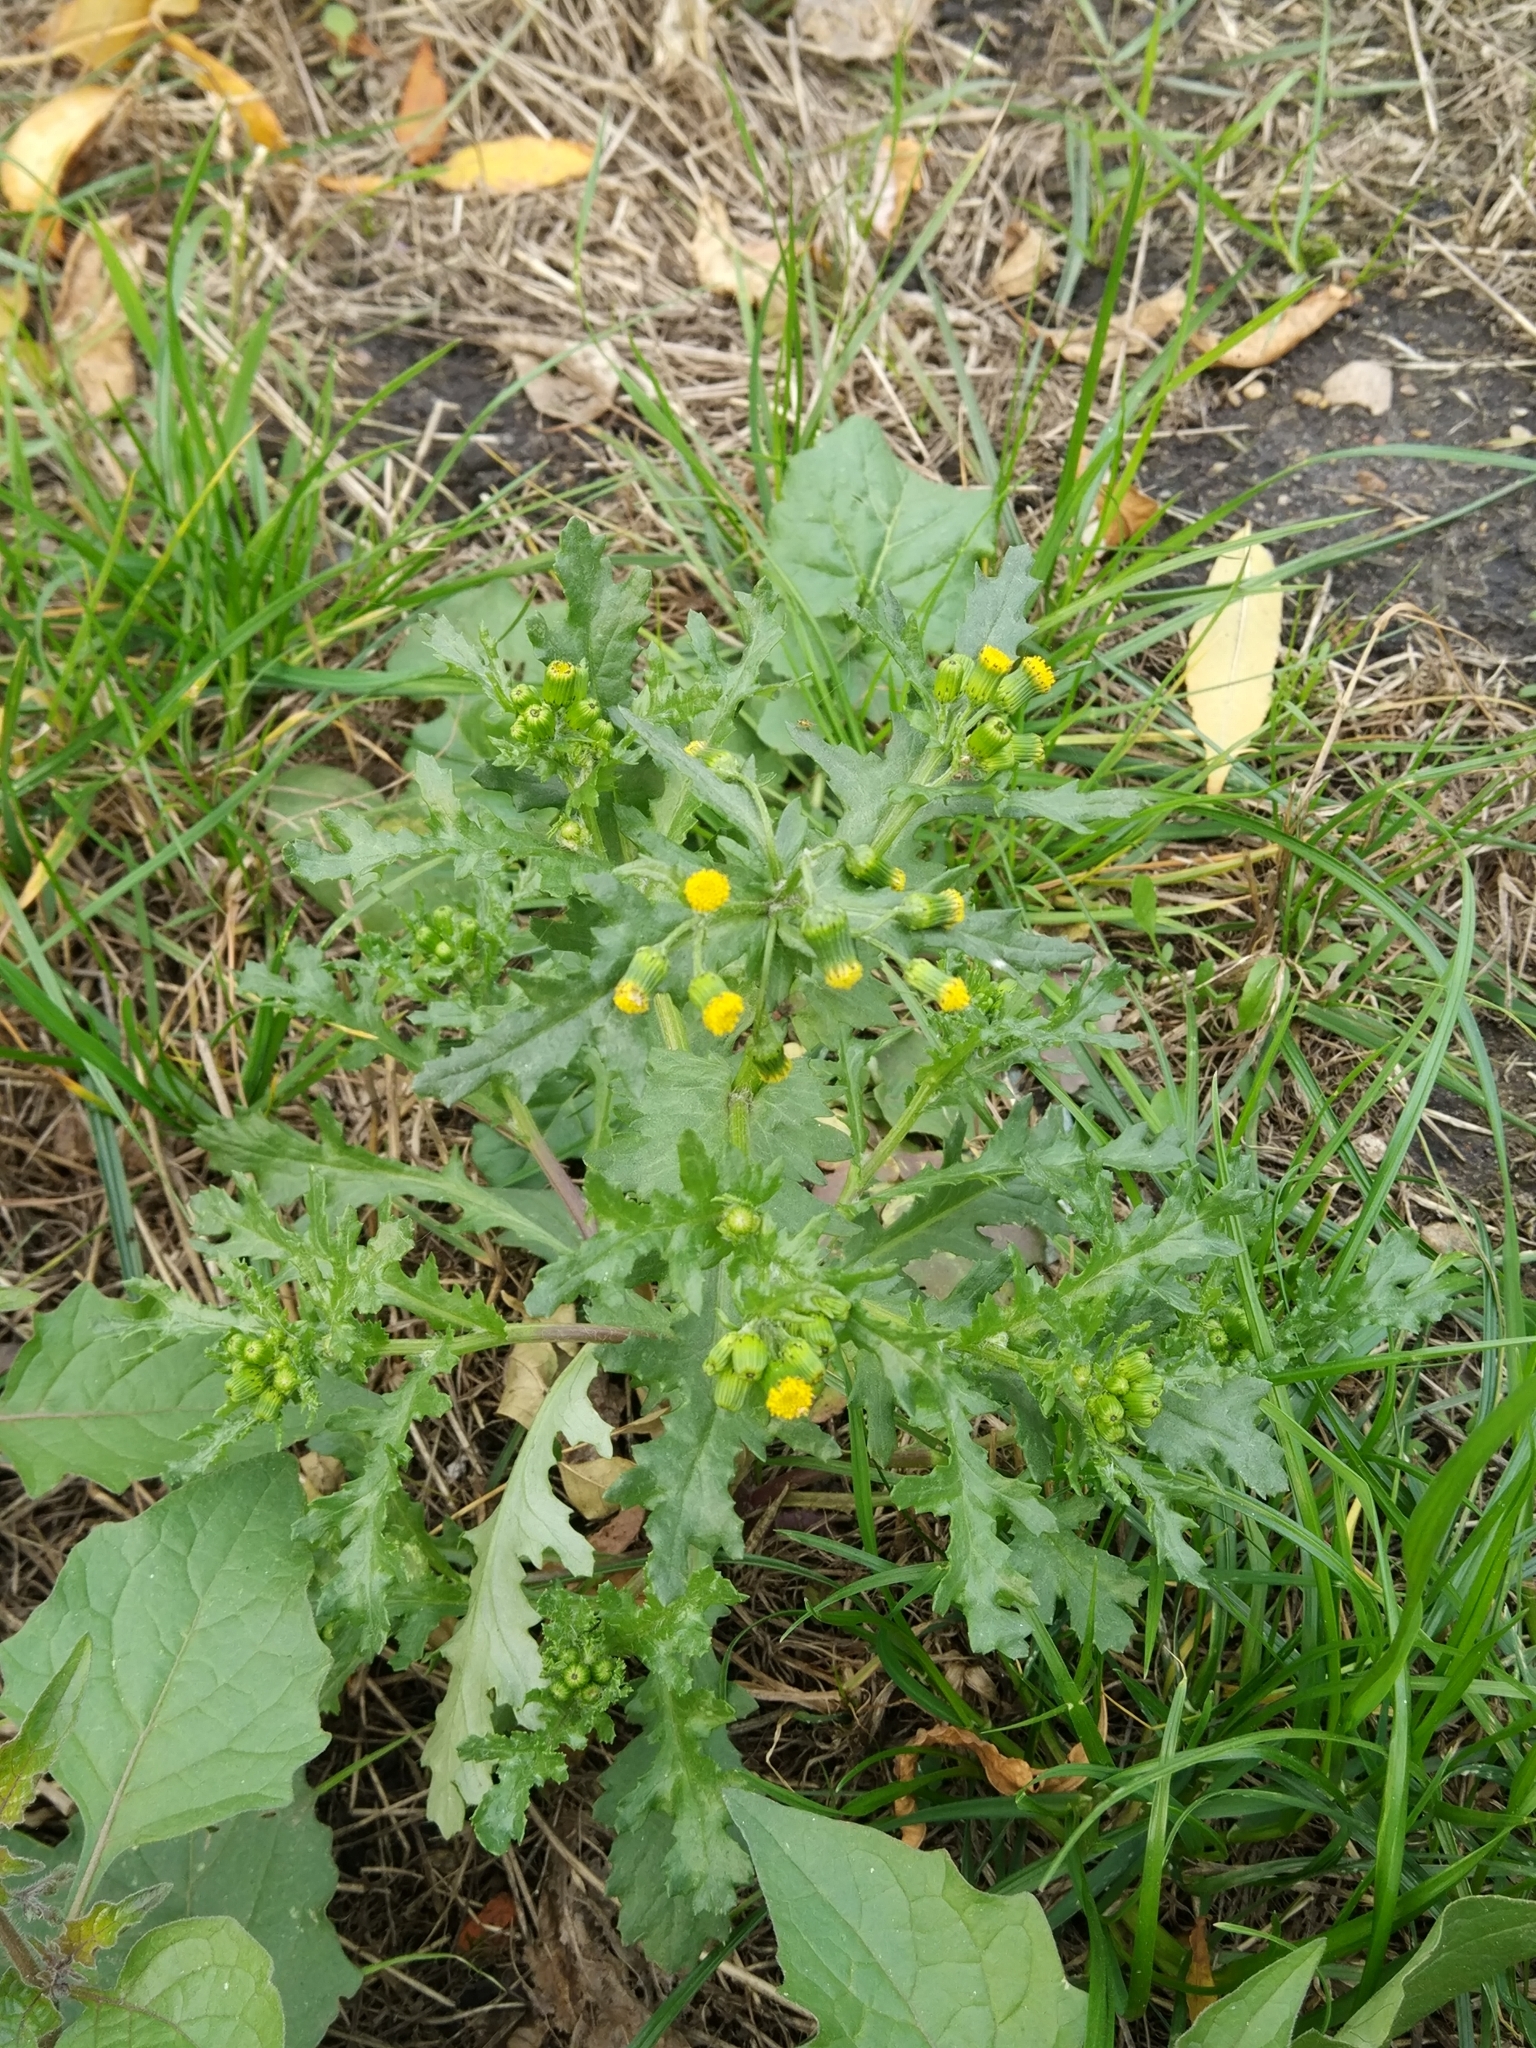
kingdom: Plantae
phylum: Tracheophyta
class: Magnoliopsida
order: Asterales
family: Asteraceae
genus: Senecio
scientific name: Senecio vulgaris
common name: Old-man-in-the-spring
